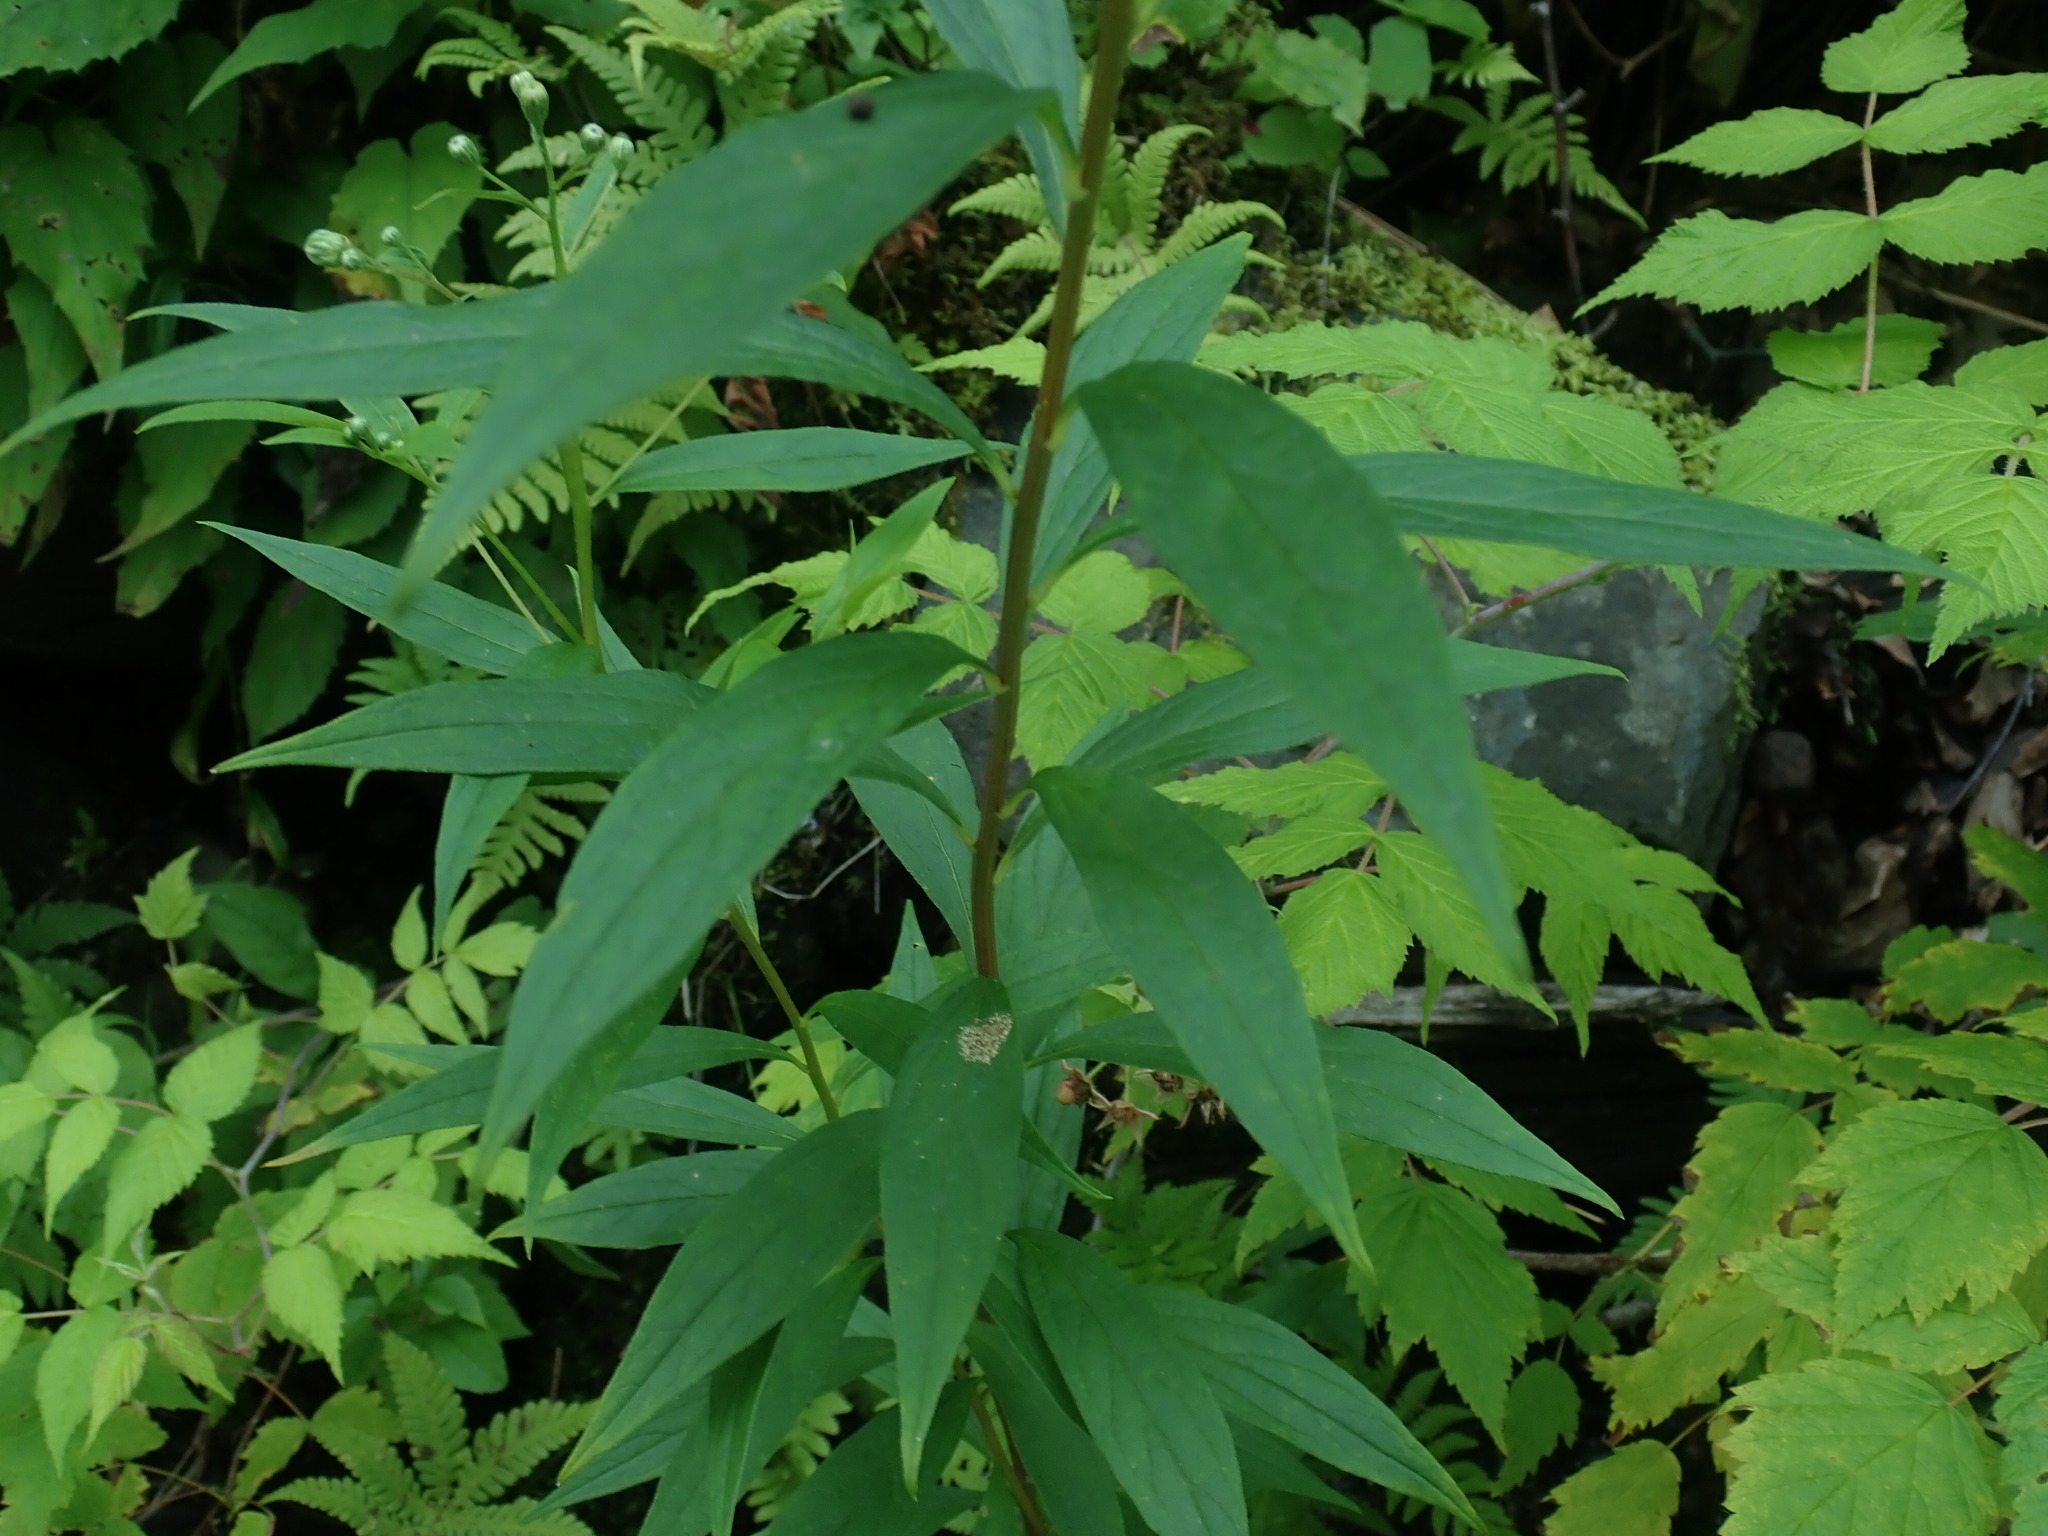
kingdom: Plantae
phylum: Tracheophyta
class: Magnoliopsida
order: Asterales
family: Asteraceae
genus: Doellingeria
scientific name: Doellingeria umbellata
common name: Flat-top white aster
